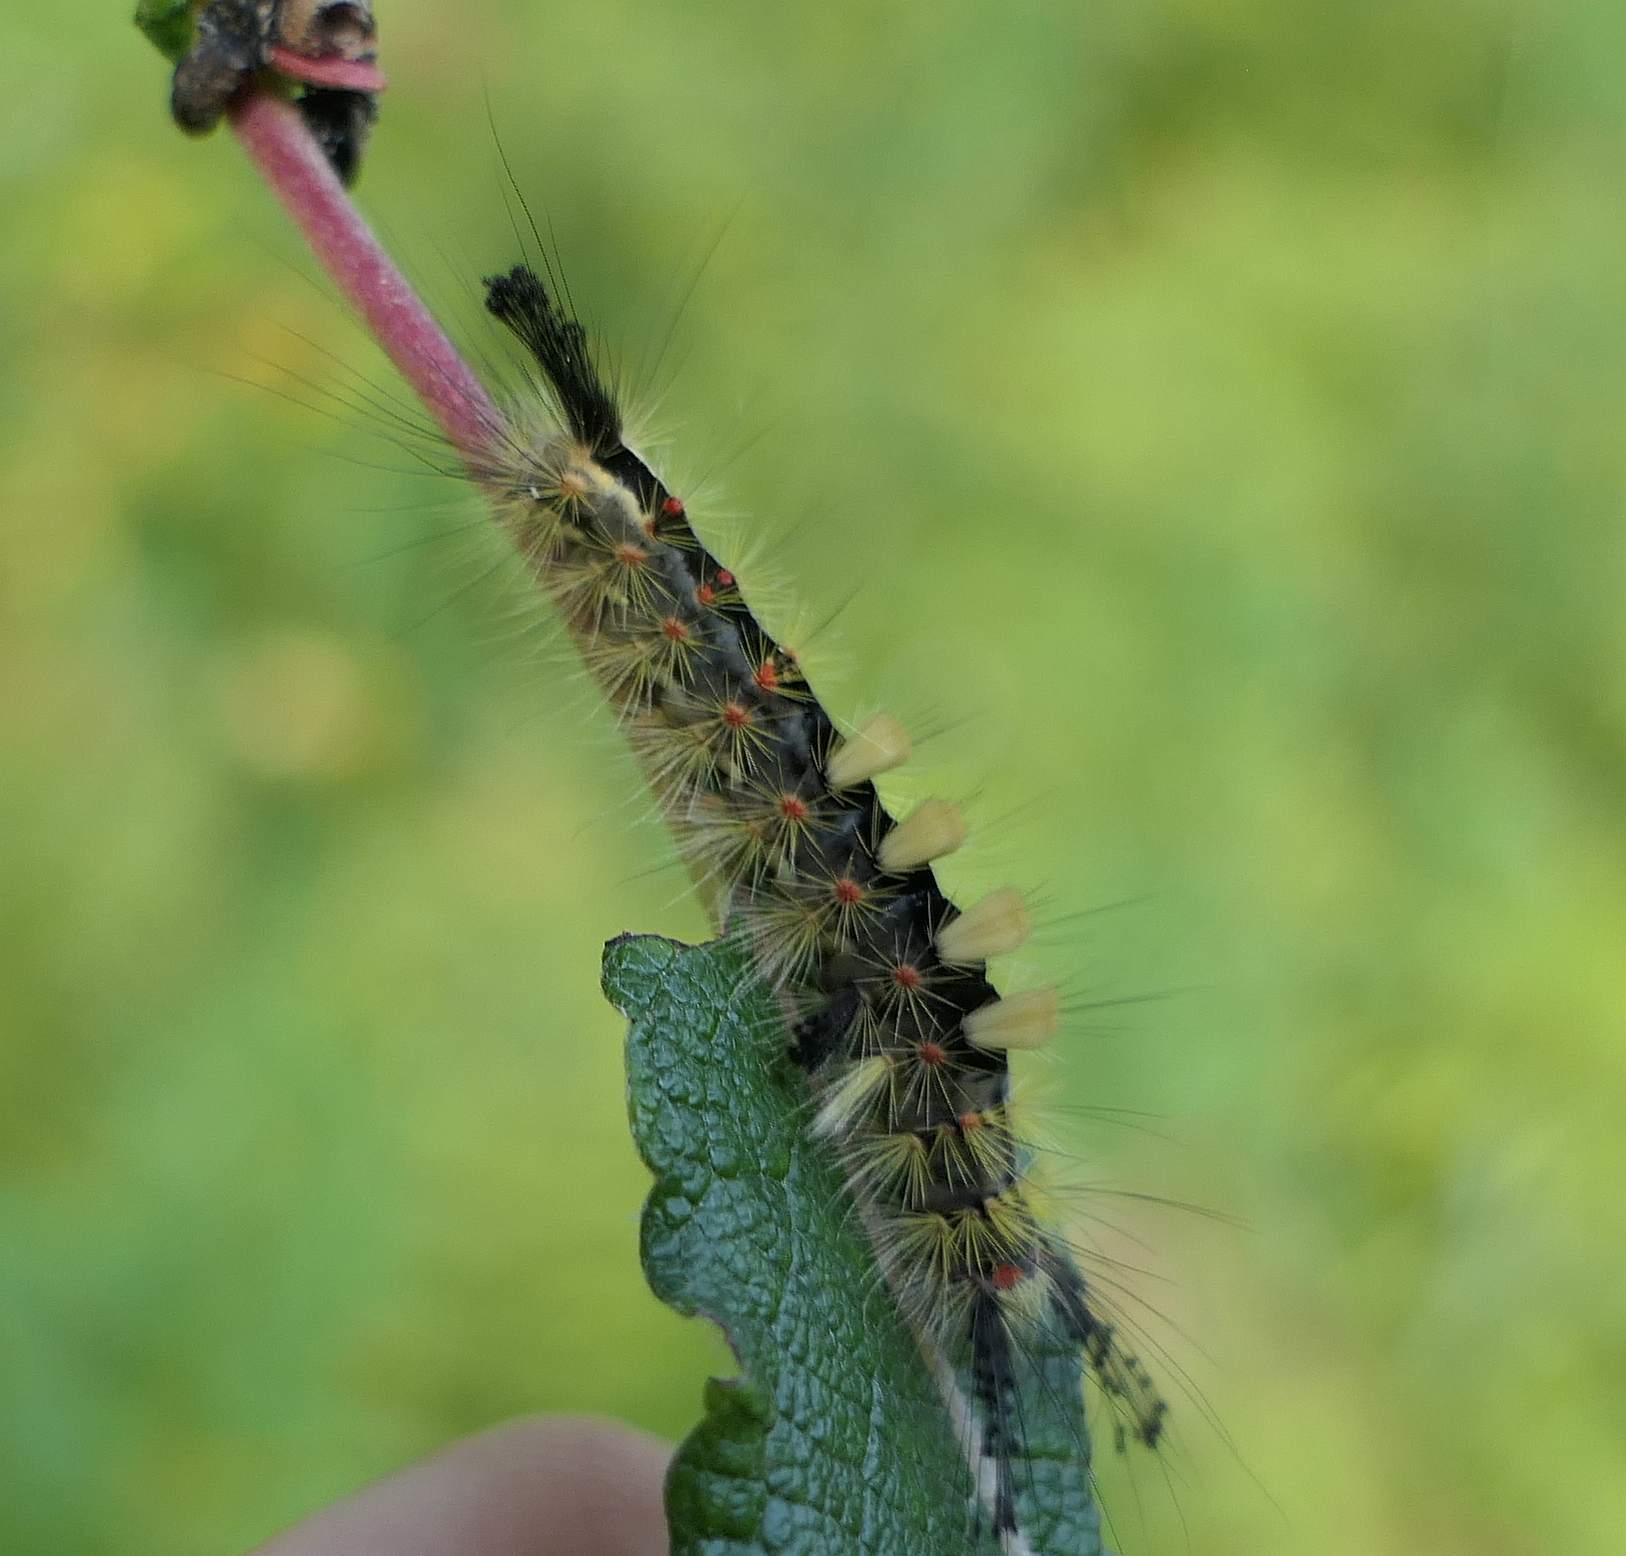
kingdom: Animalia
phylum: Arthropoda
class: Insecta
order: Lepidoptera
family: Erebidae
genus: Orgyia
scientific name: Orgyia antiqua
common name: Vapourer
